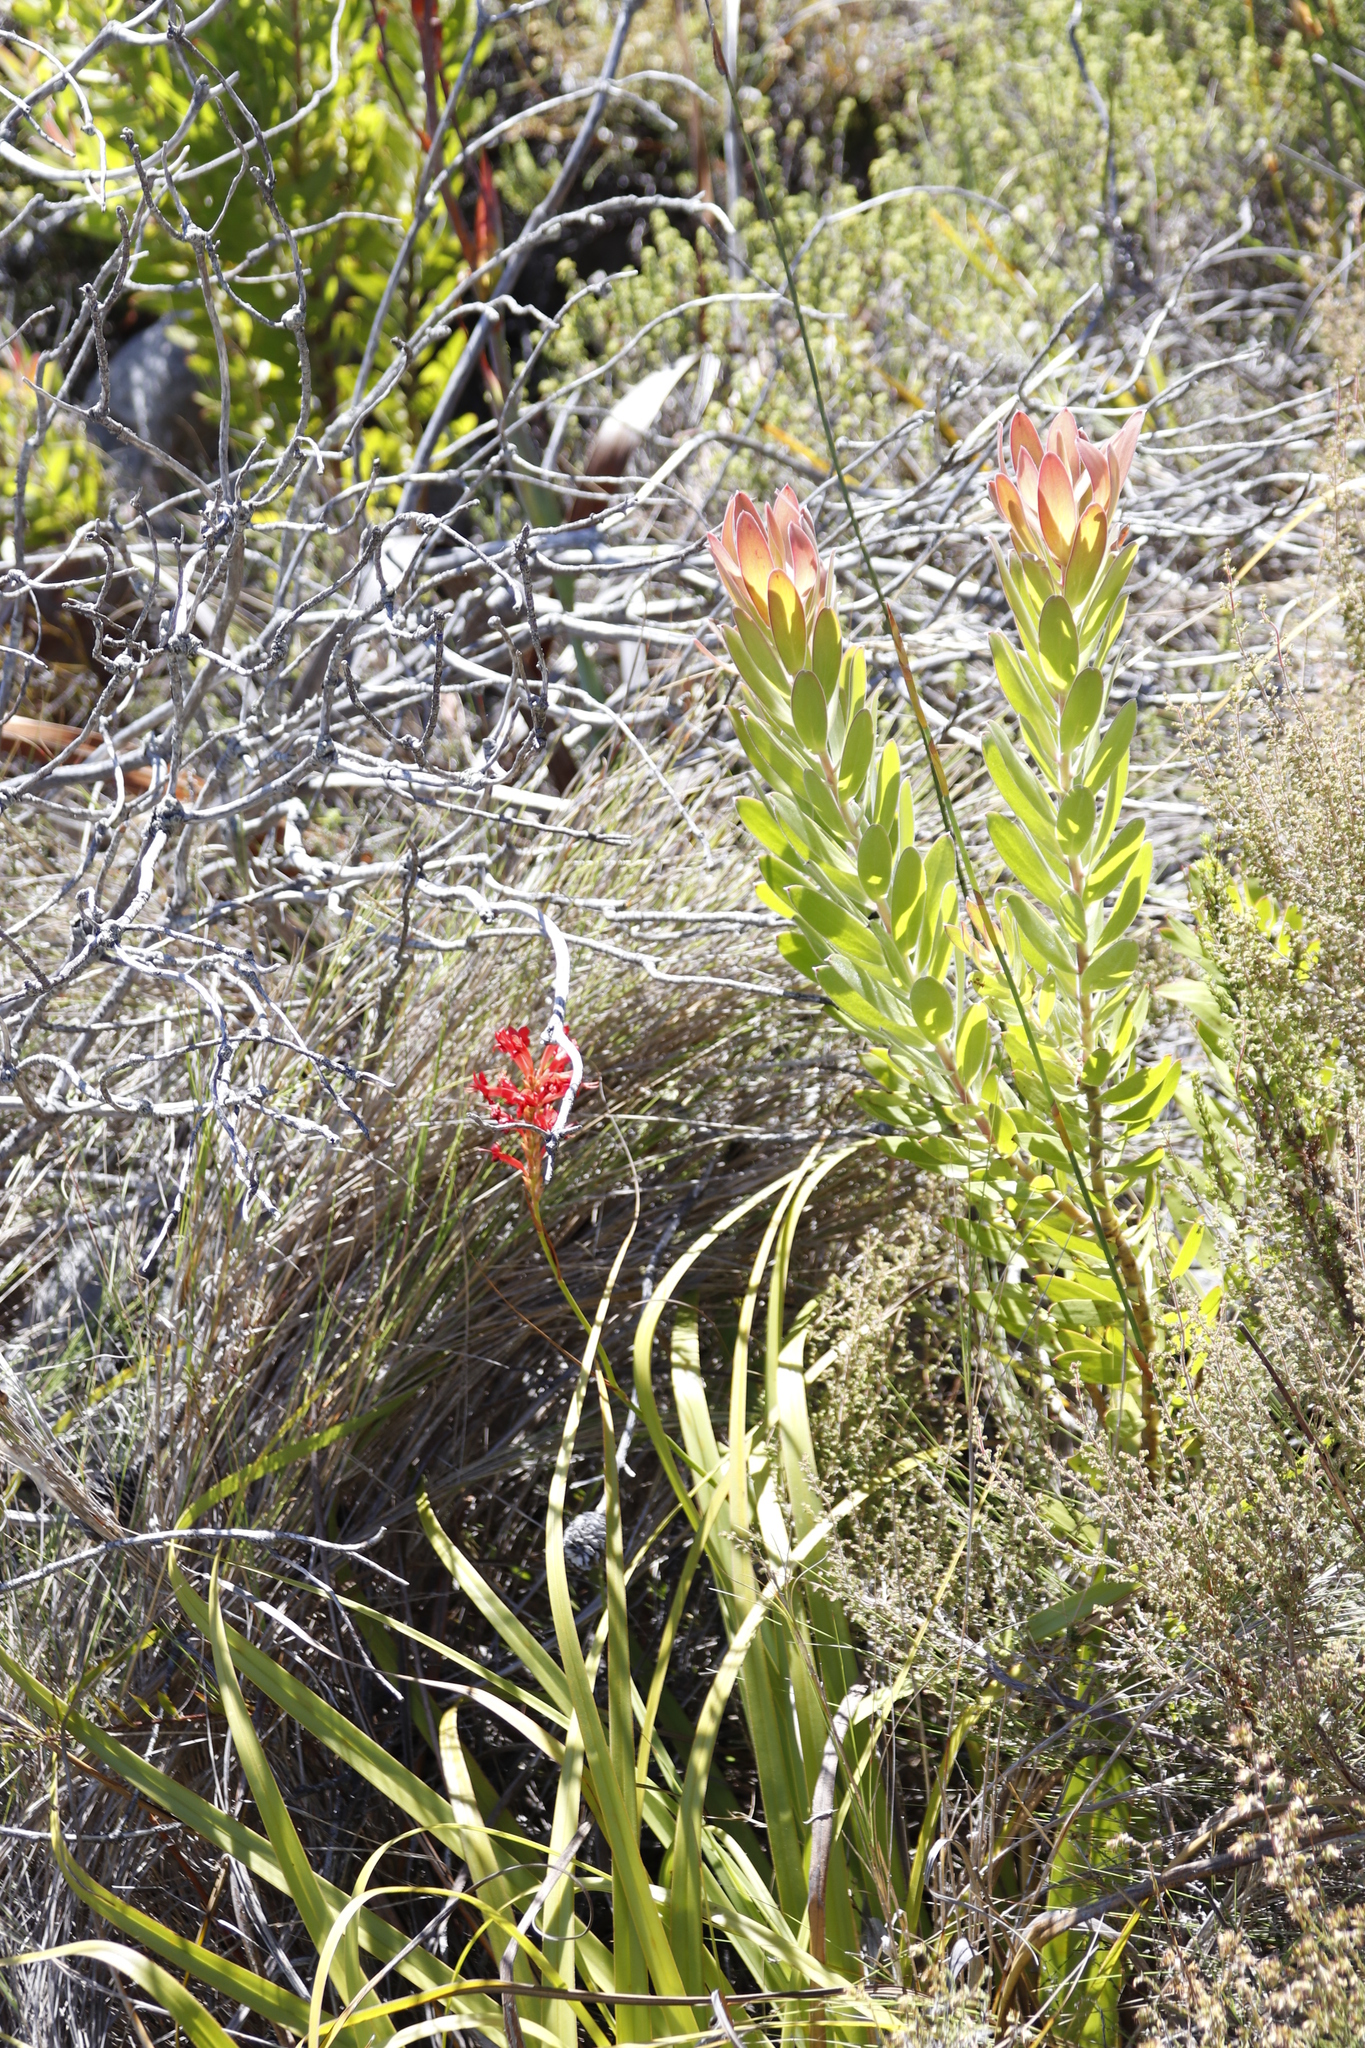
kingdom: Plantae
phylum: Tracheophyta
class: Liliopsida
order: Asparagales
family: Iridaceae
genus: Tritoniopsis
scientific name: Tritoniopsis triticea
